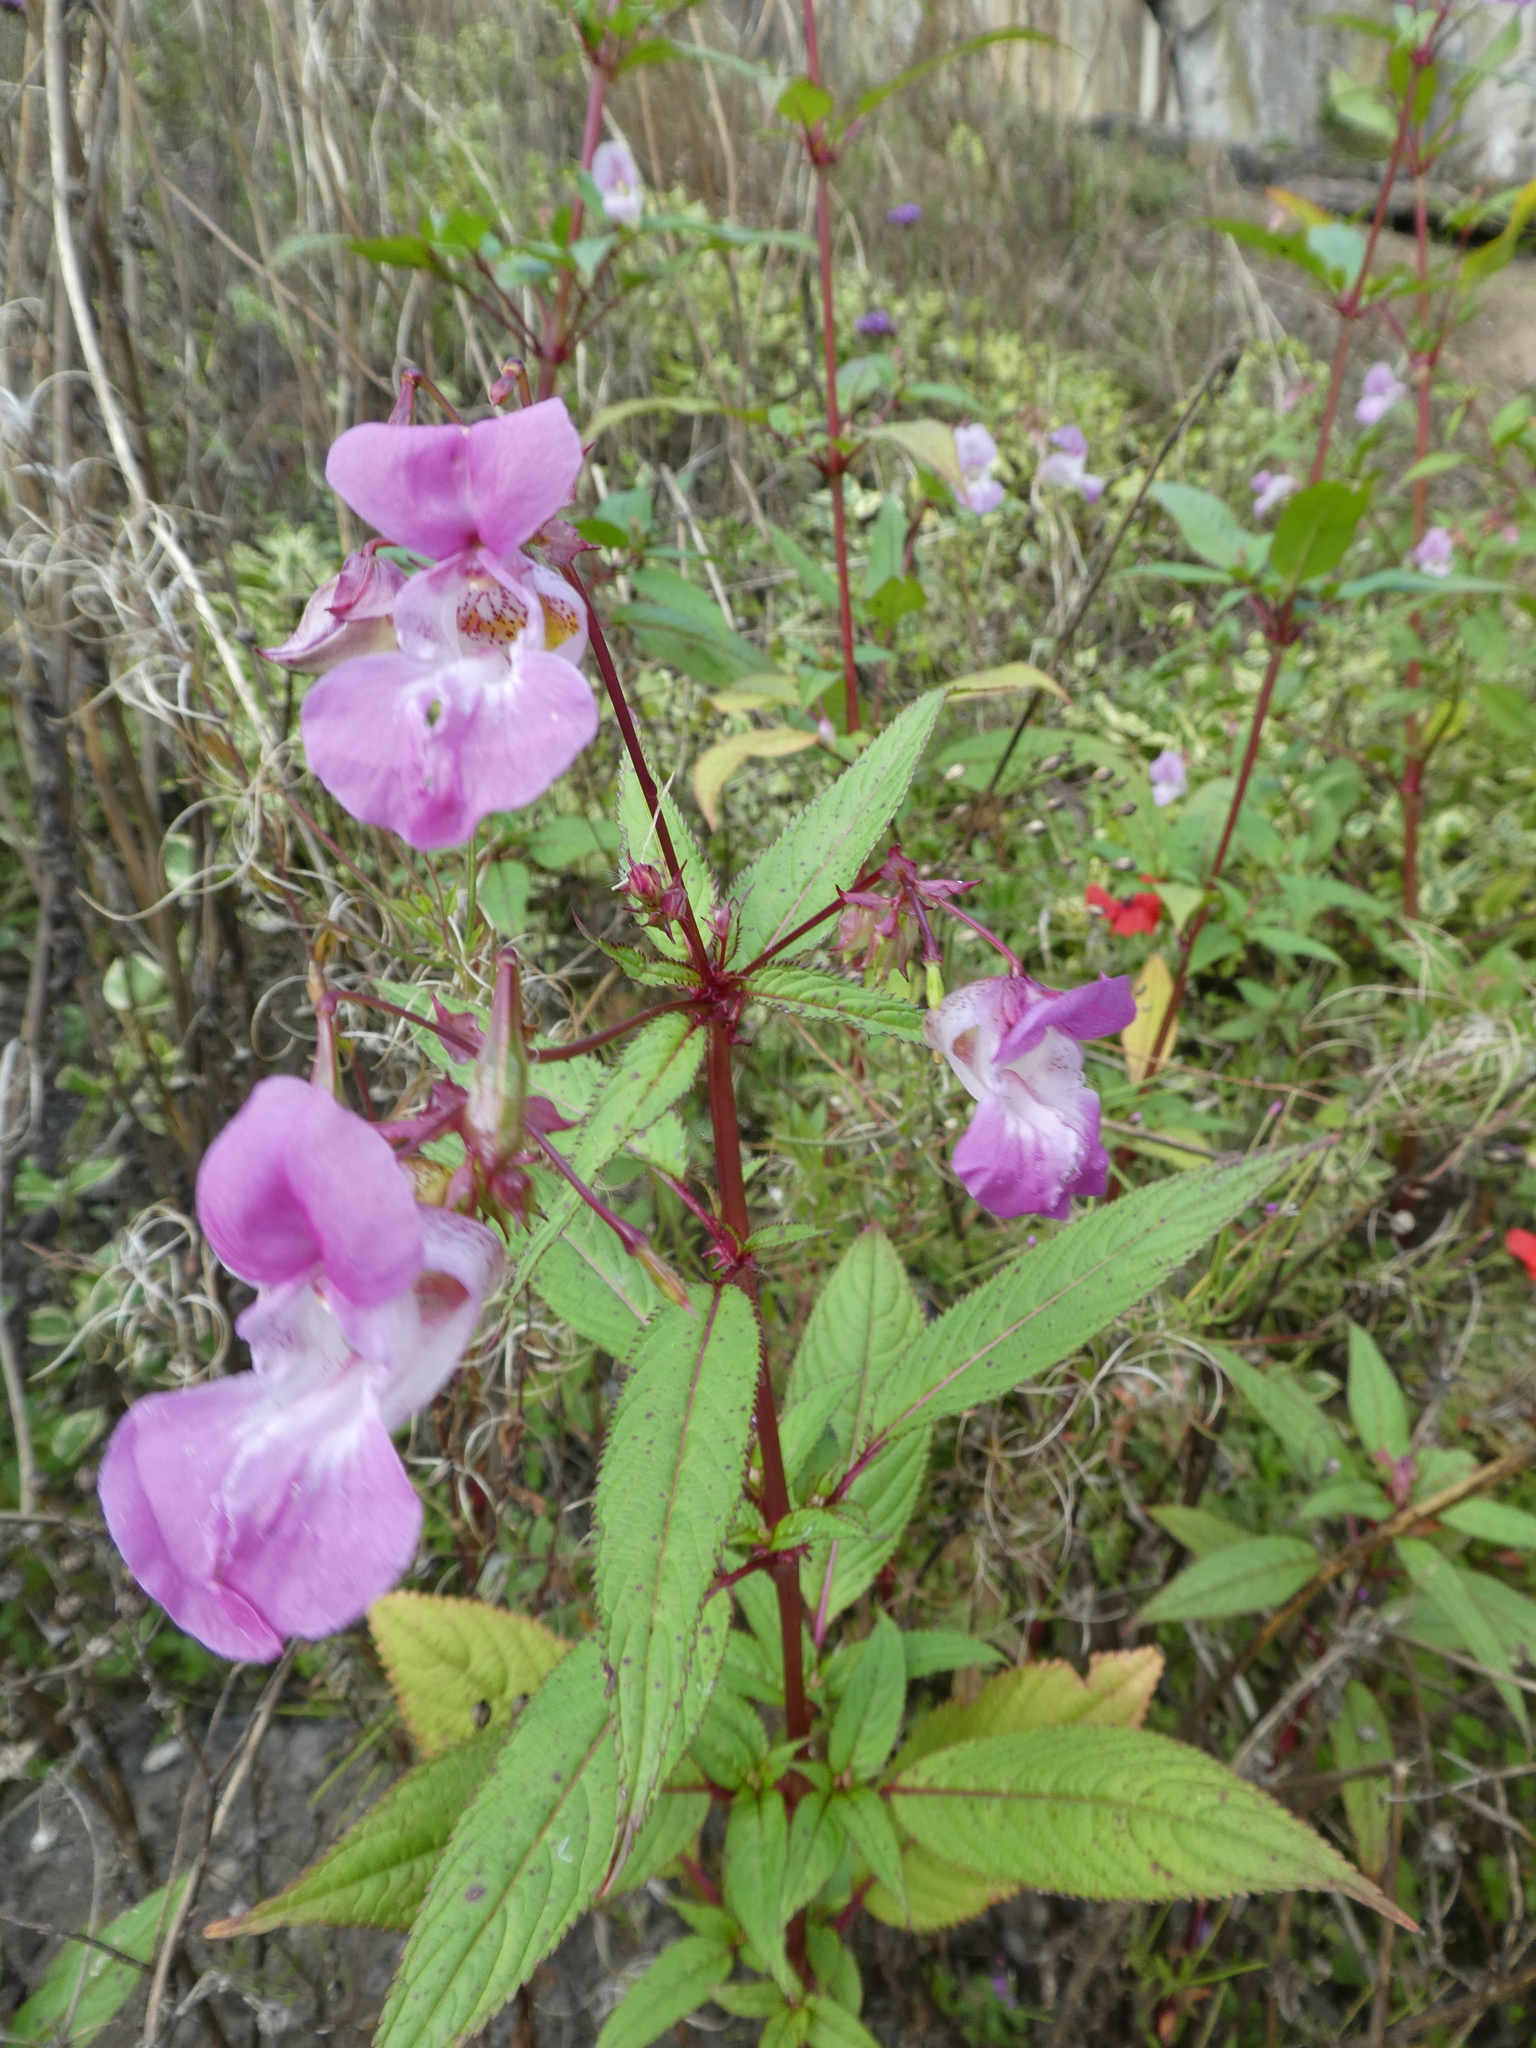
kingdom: Plantae
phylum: Tracheophyta
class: Magnoliopsida
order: Ericales
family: Balsaminaceae
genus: Impatiens
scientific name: Impatiens glandulifera
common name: Himalayan balsam
